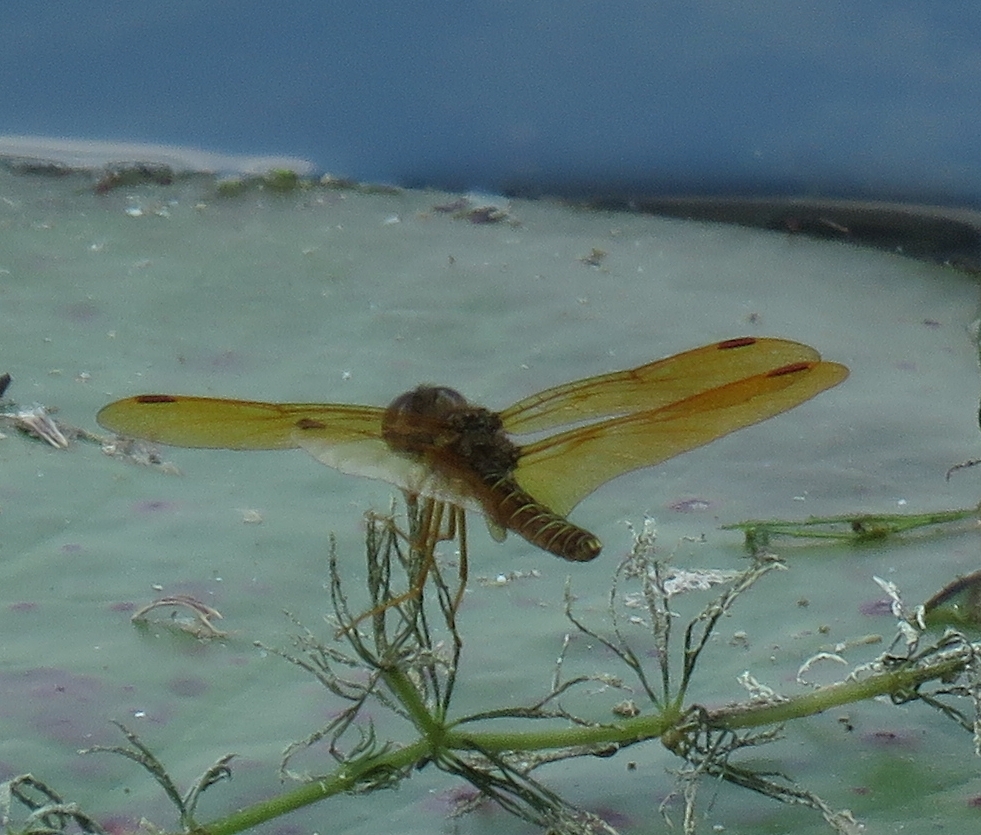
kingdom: Animalia
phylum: Arthropoda
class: Insecta
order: Odonata
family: Libellulidae
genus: Perithemis
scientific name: Perithemis tenera
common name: Eastern amberwing
